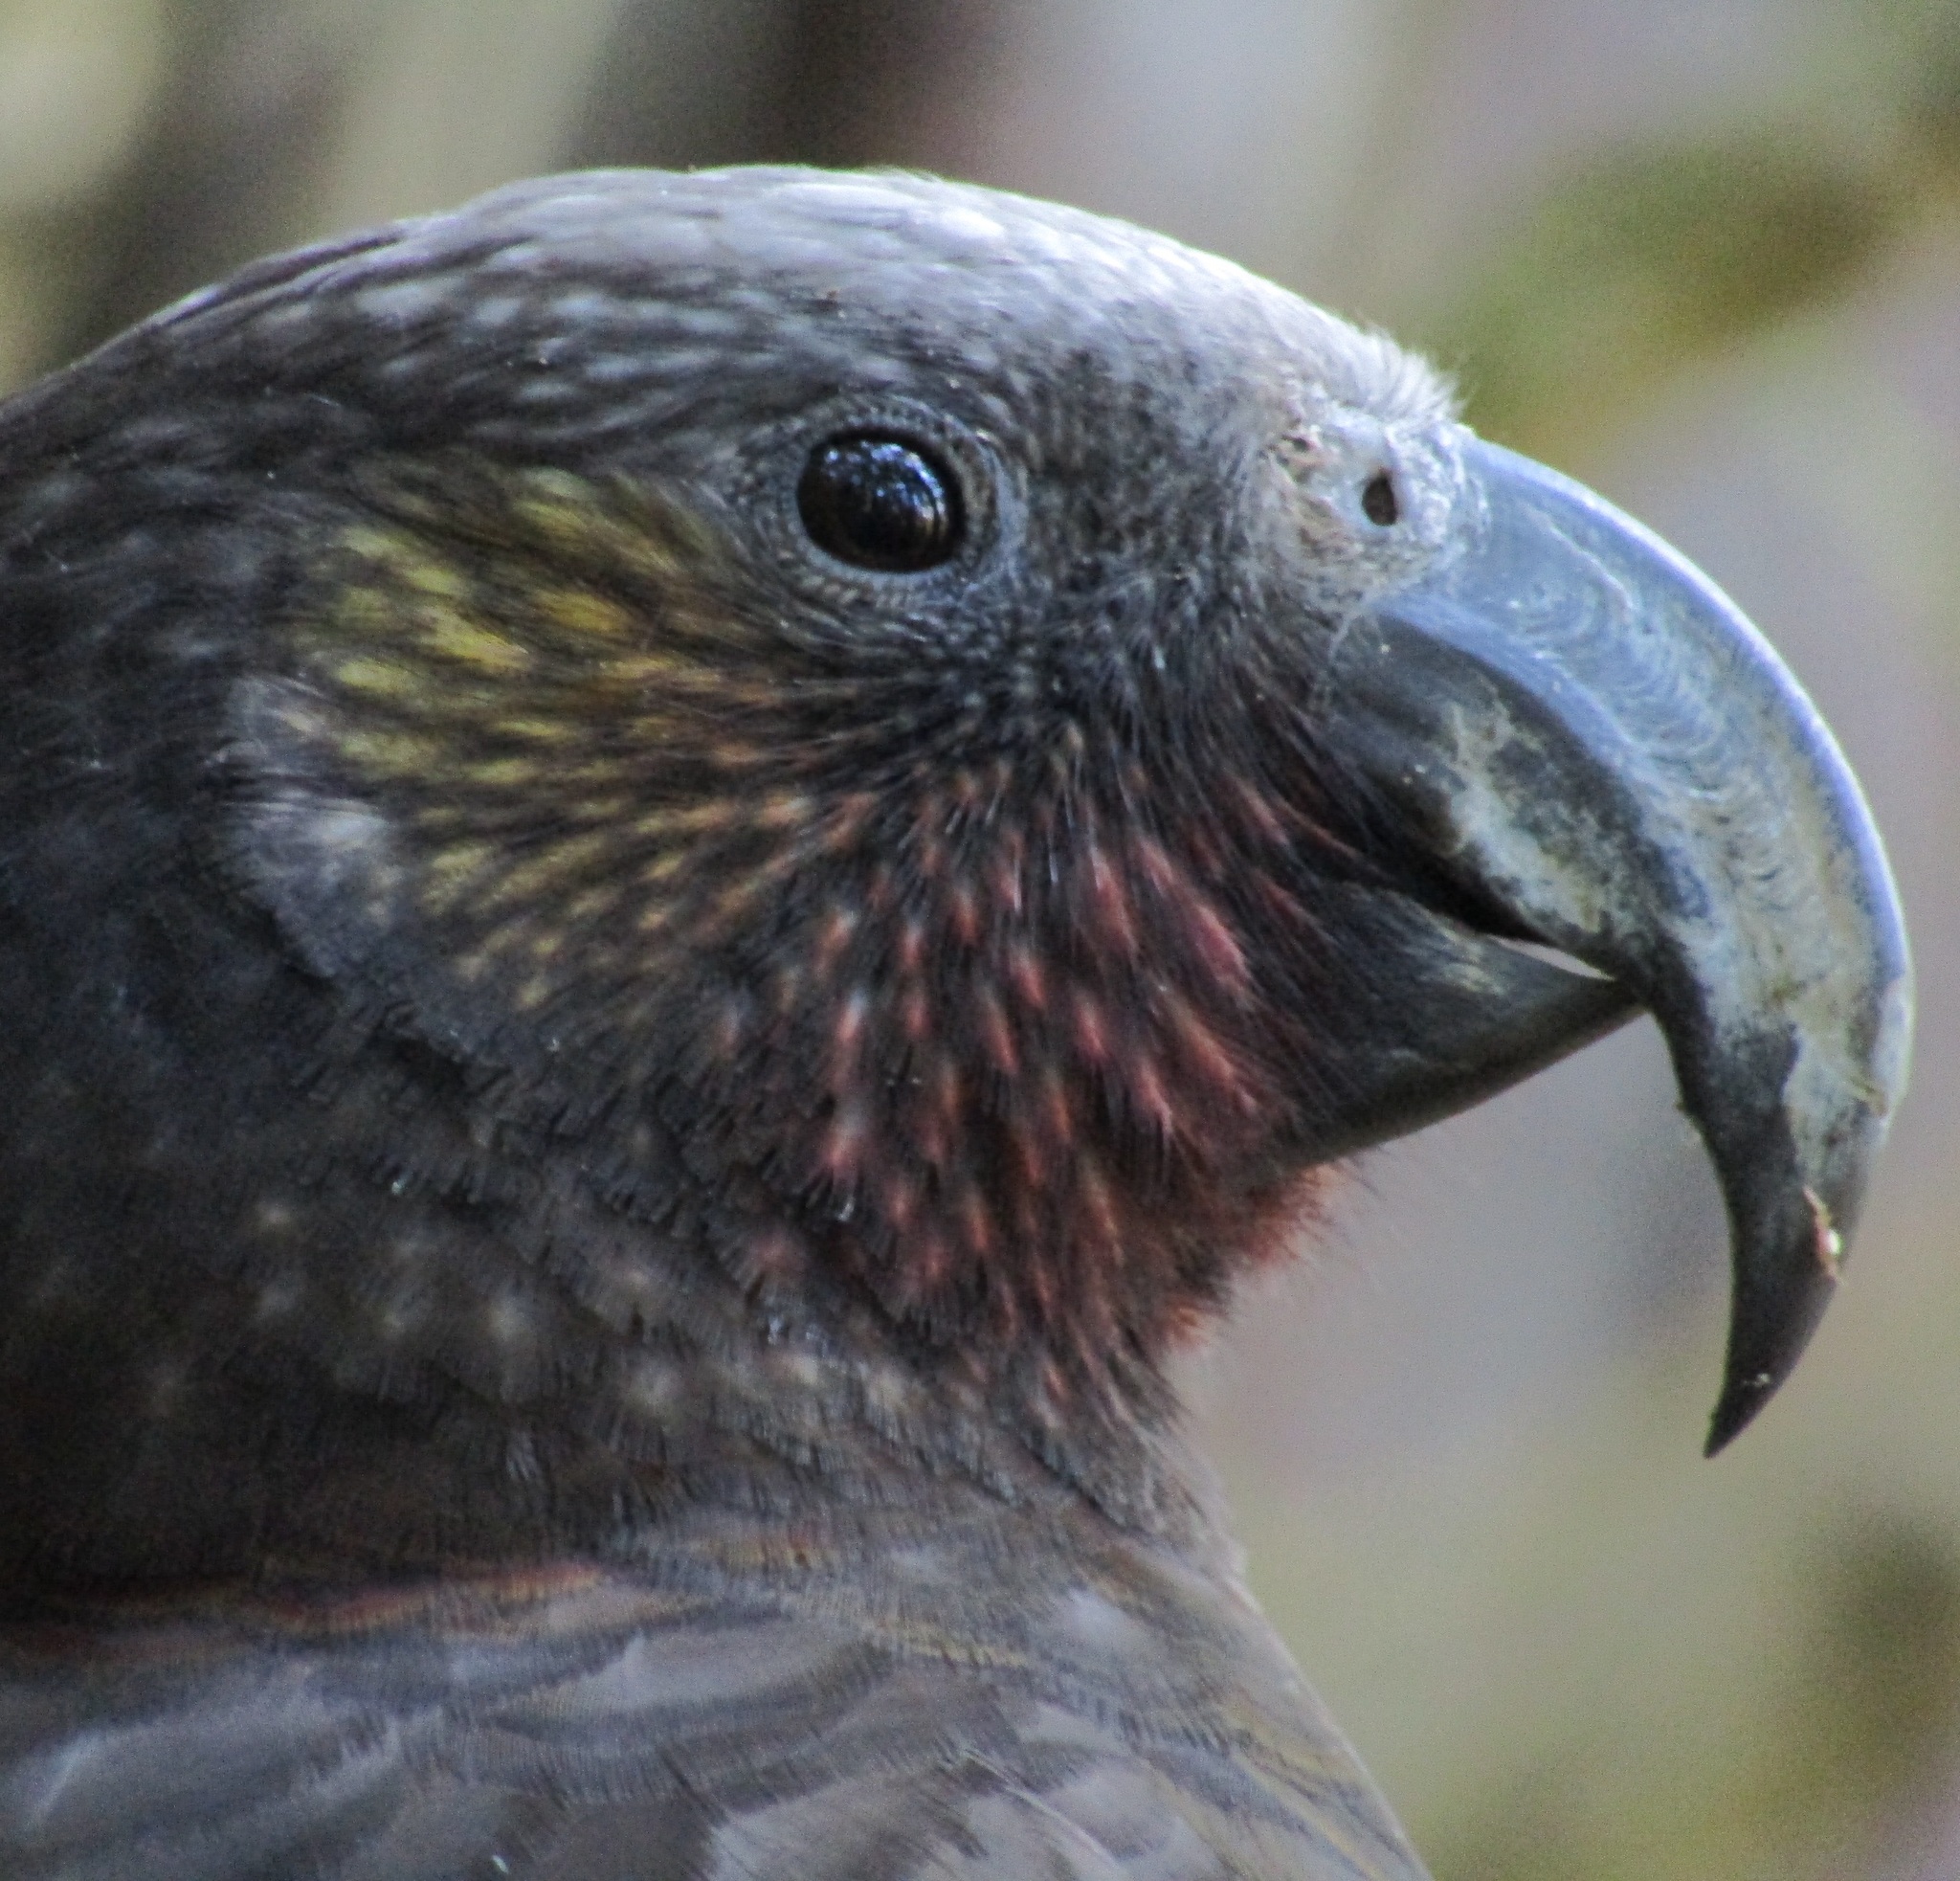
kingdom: Animalia
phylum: Chordata
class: Aves
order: Psittaciformes
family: Psittacidae
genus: Nestor
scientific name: Nestor meridionalis
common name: New zealand kaka
